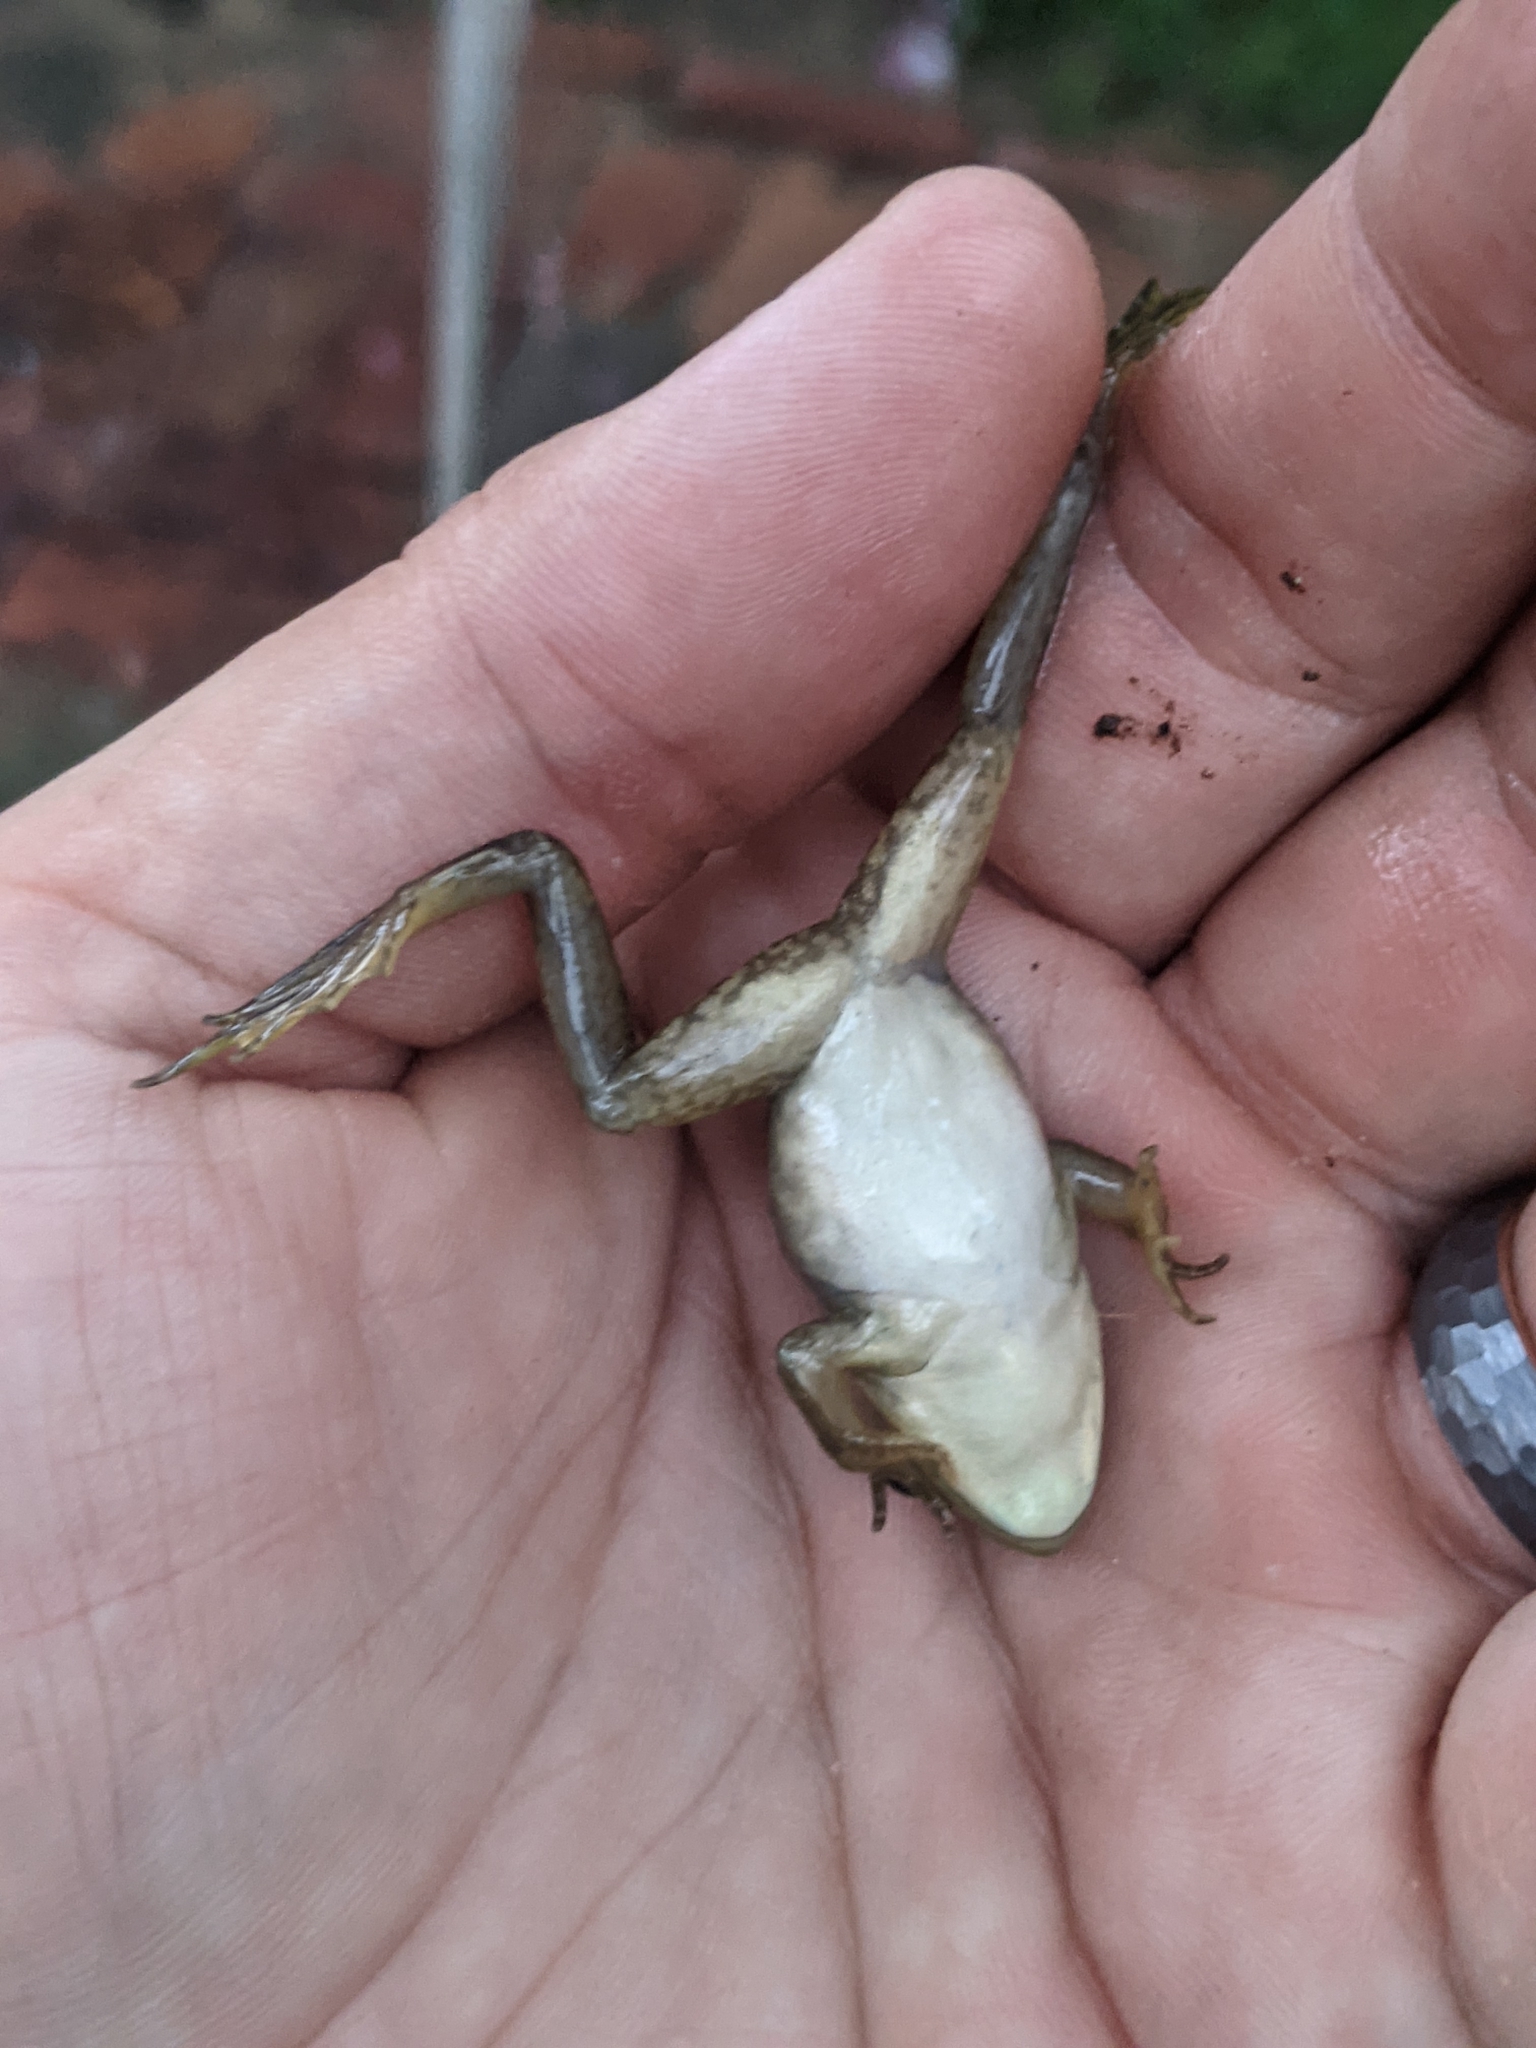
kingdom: Animalia
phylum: Chordata
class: Amphibia
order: Anura
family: Ranidae
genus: Lithobates
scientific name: Lithobates catesbeianus
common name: American bullfrog
